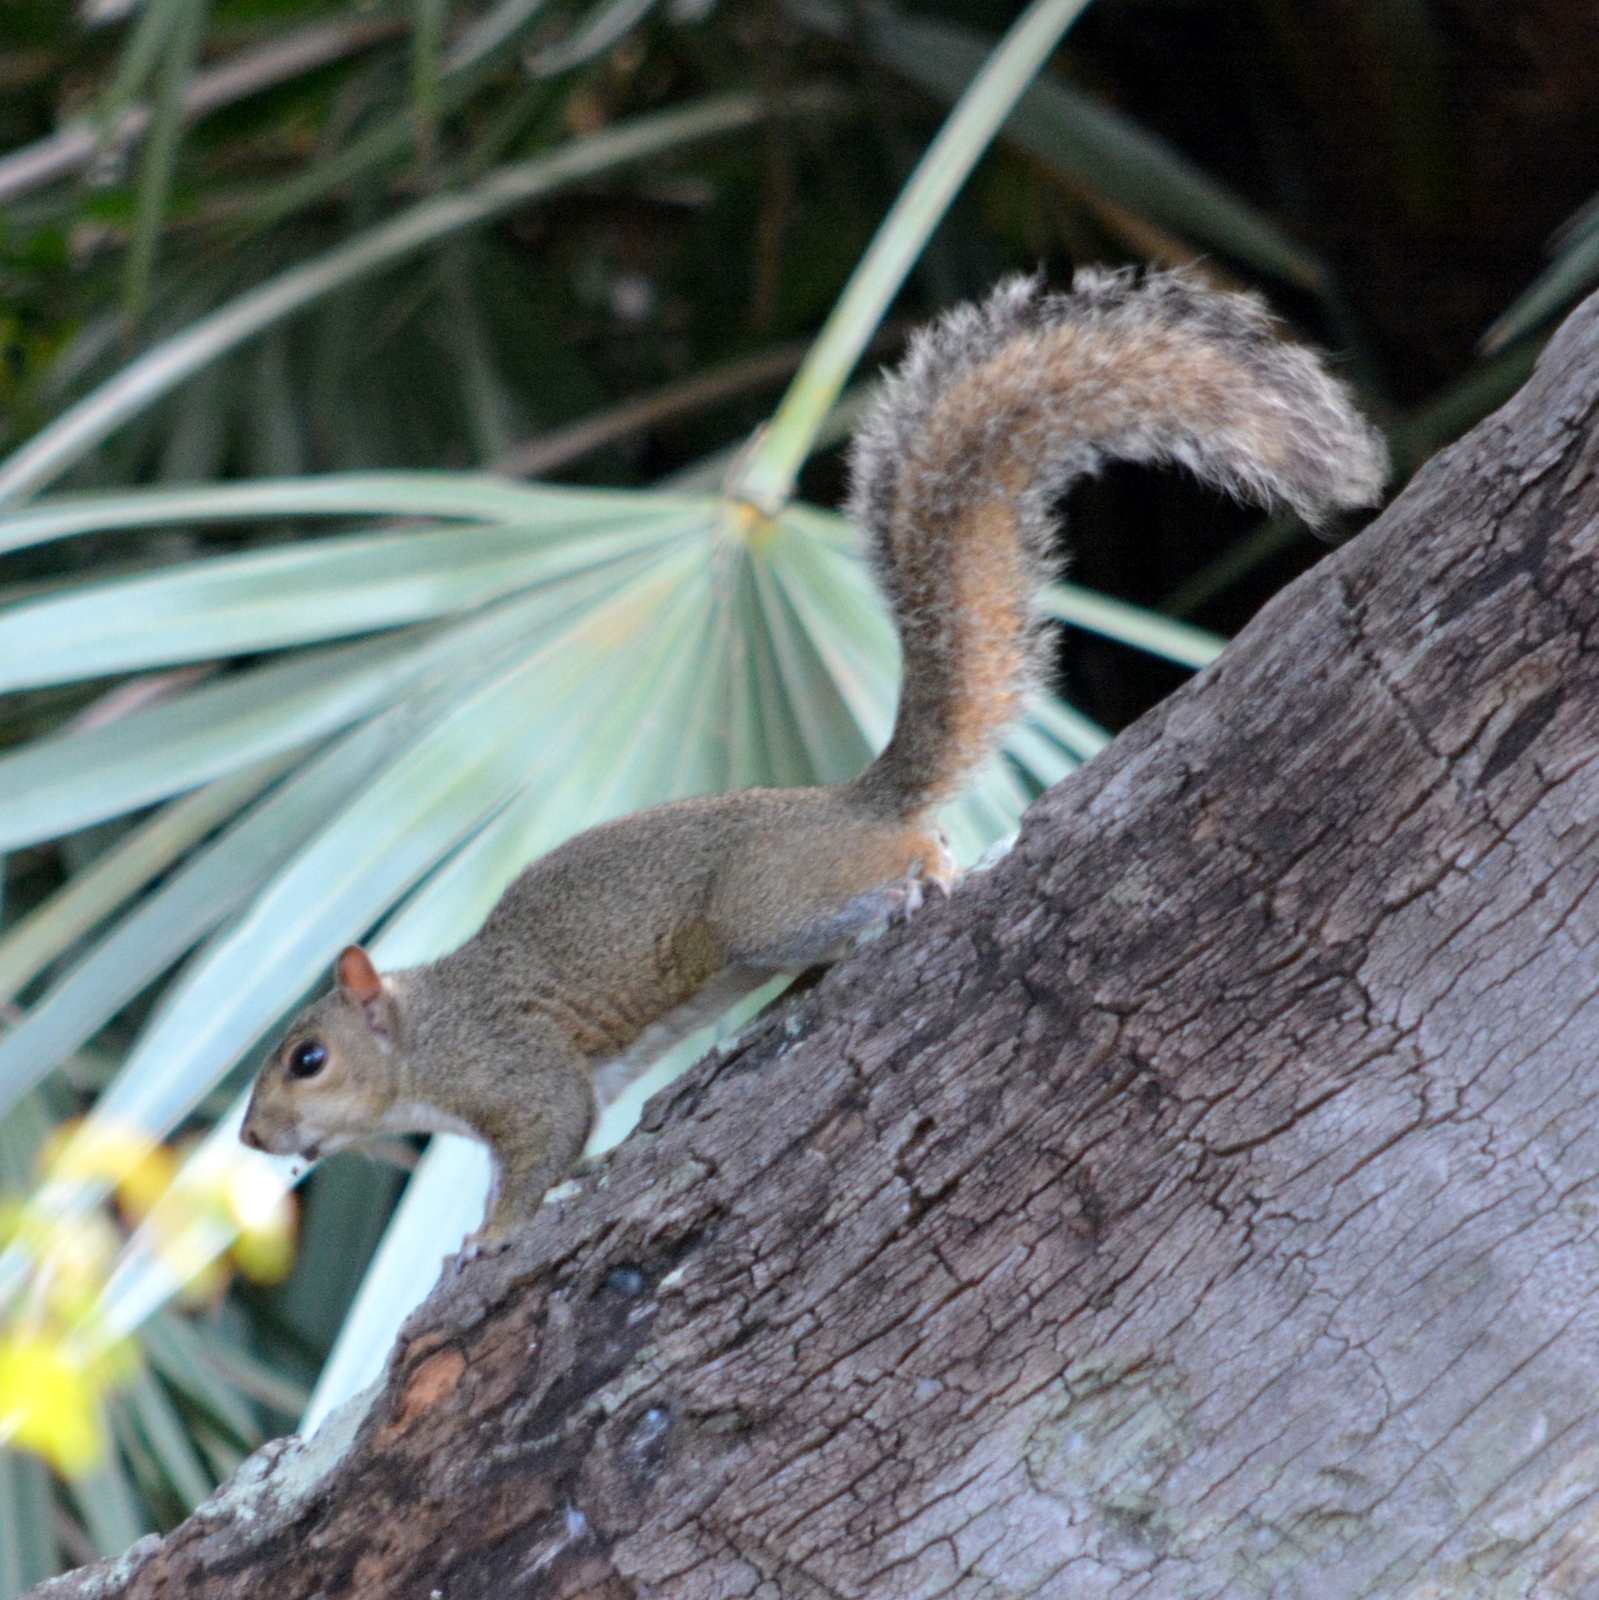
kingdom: Animalia
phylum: Chordata
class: Mammalia
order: Rodentia
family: Sciuridae
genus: Sciurus
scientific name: Sciurus carolinensis
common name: Eastern gray squirrel
